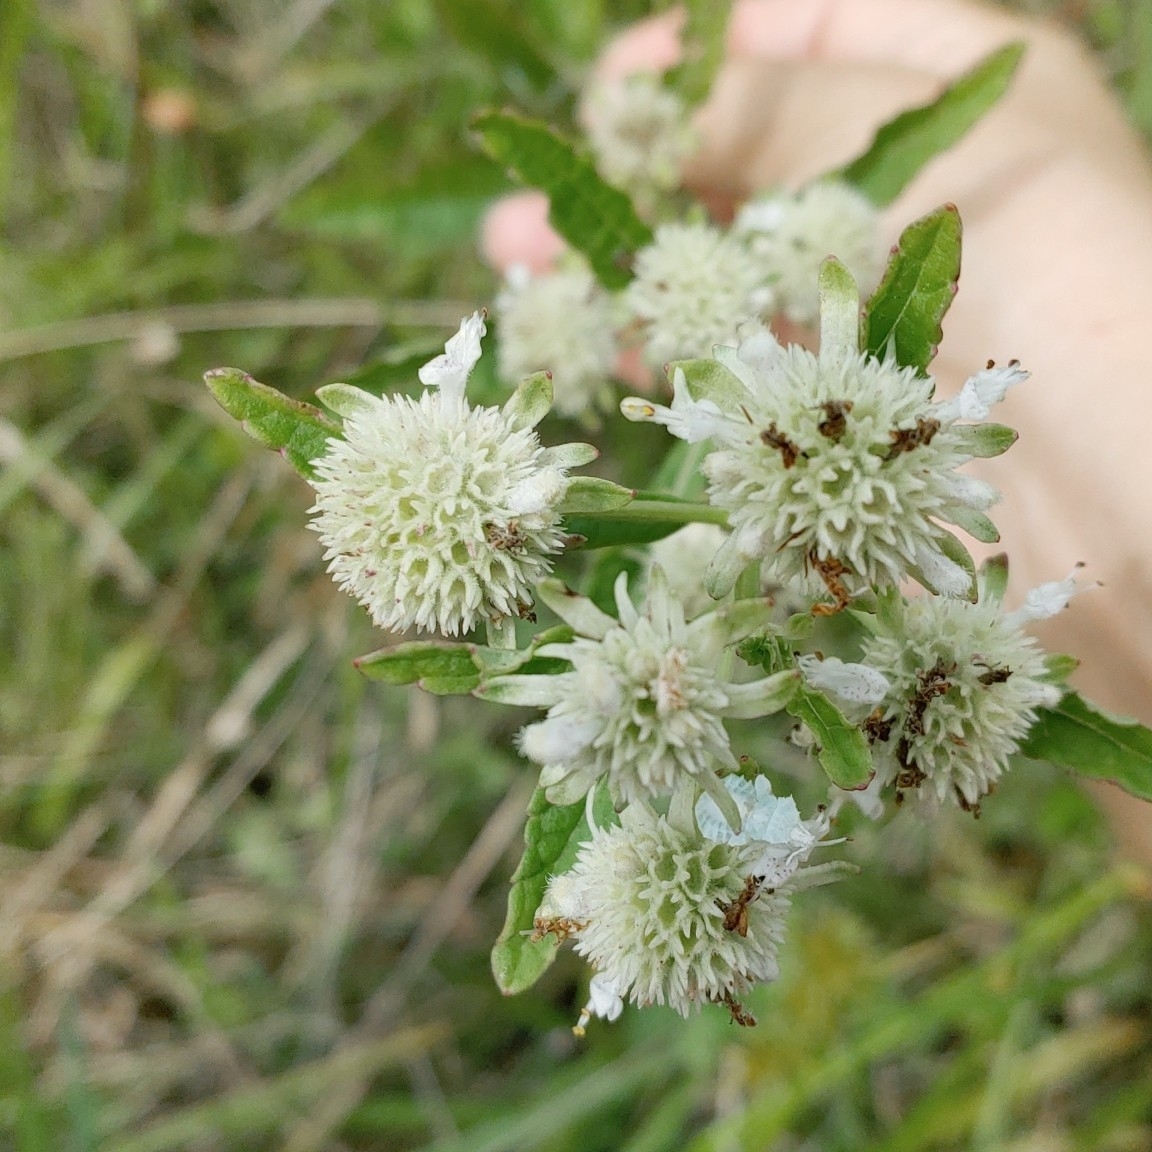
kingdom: Plantae
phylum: Tracheophyta
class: Magnoliopsida
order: Lamiales
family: Lamiaceae
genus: Hyptis
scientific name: Hyptis alata
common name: Cluster bush-mint
